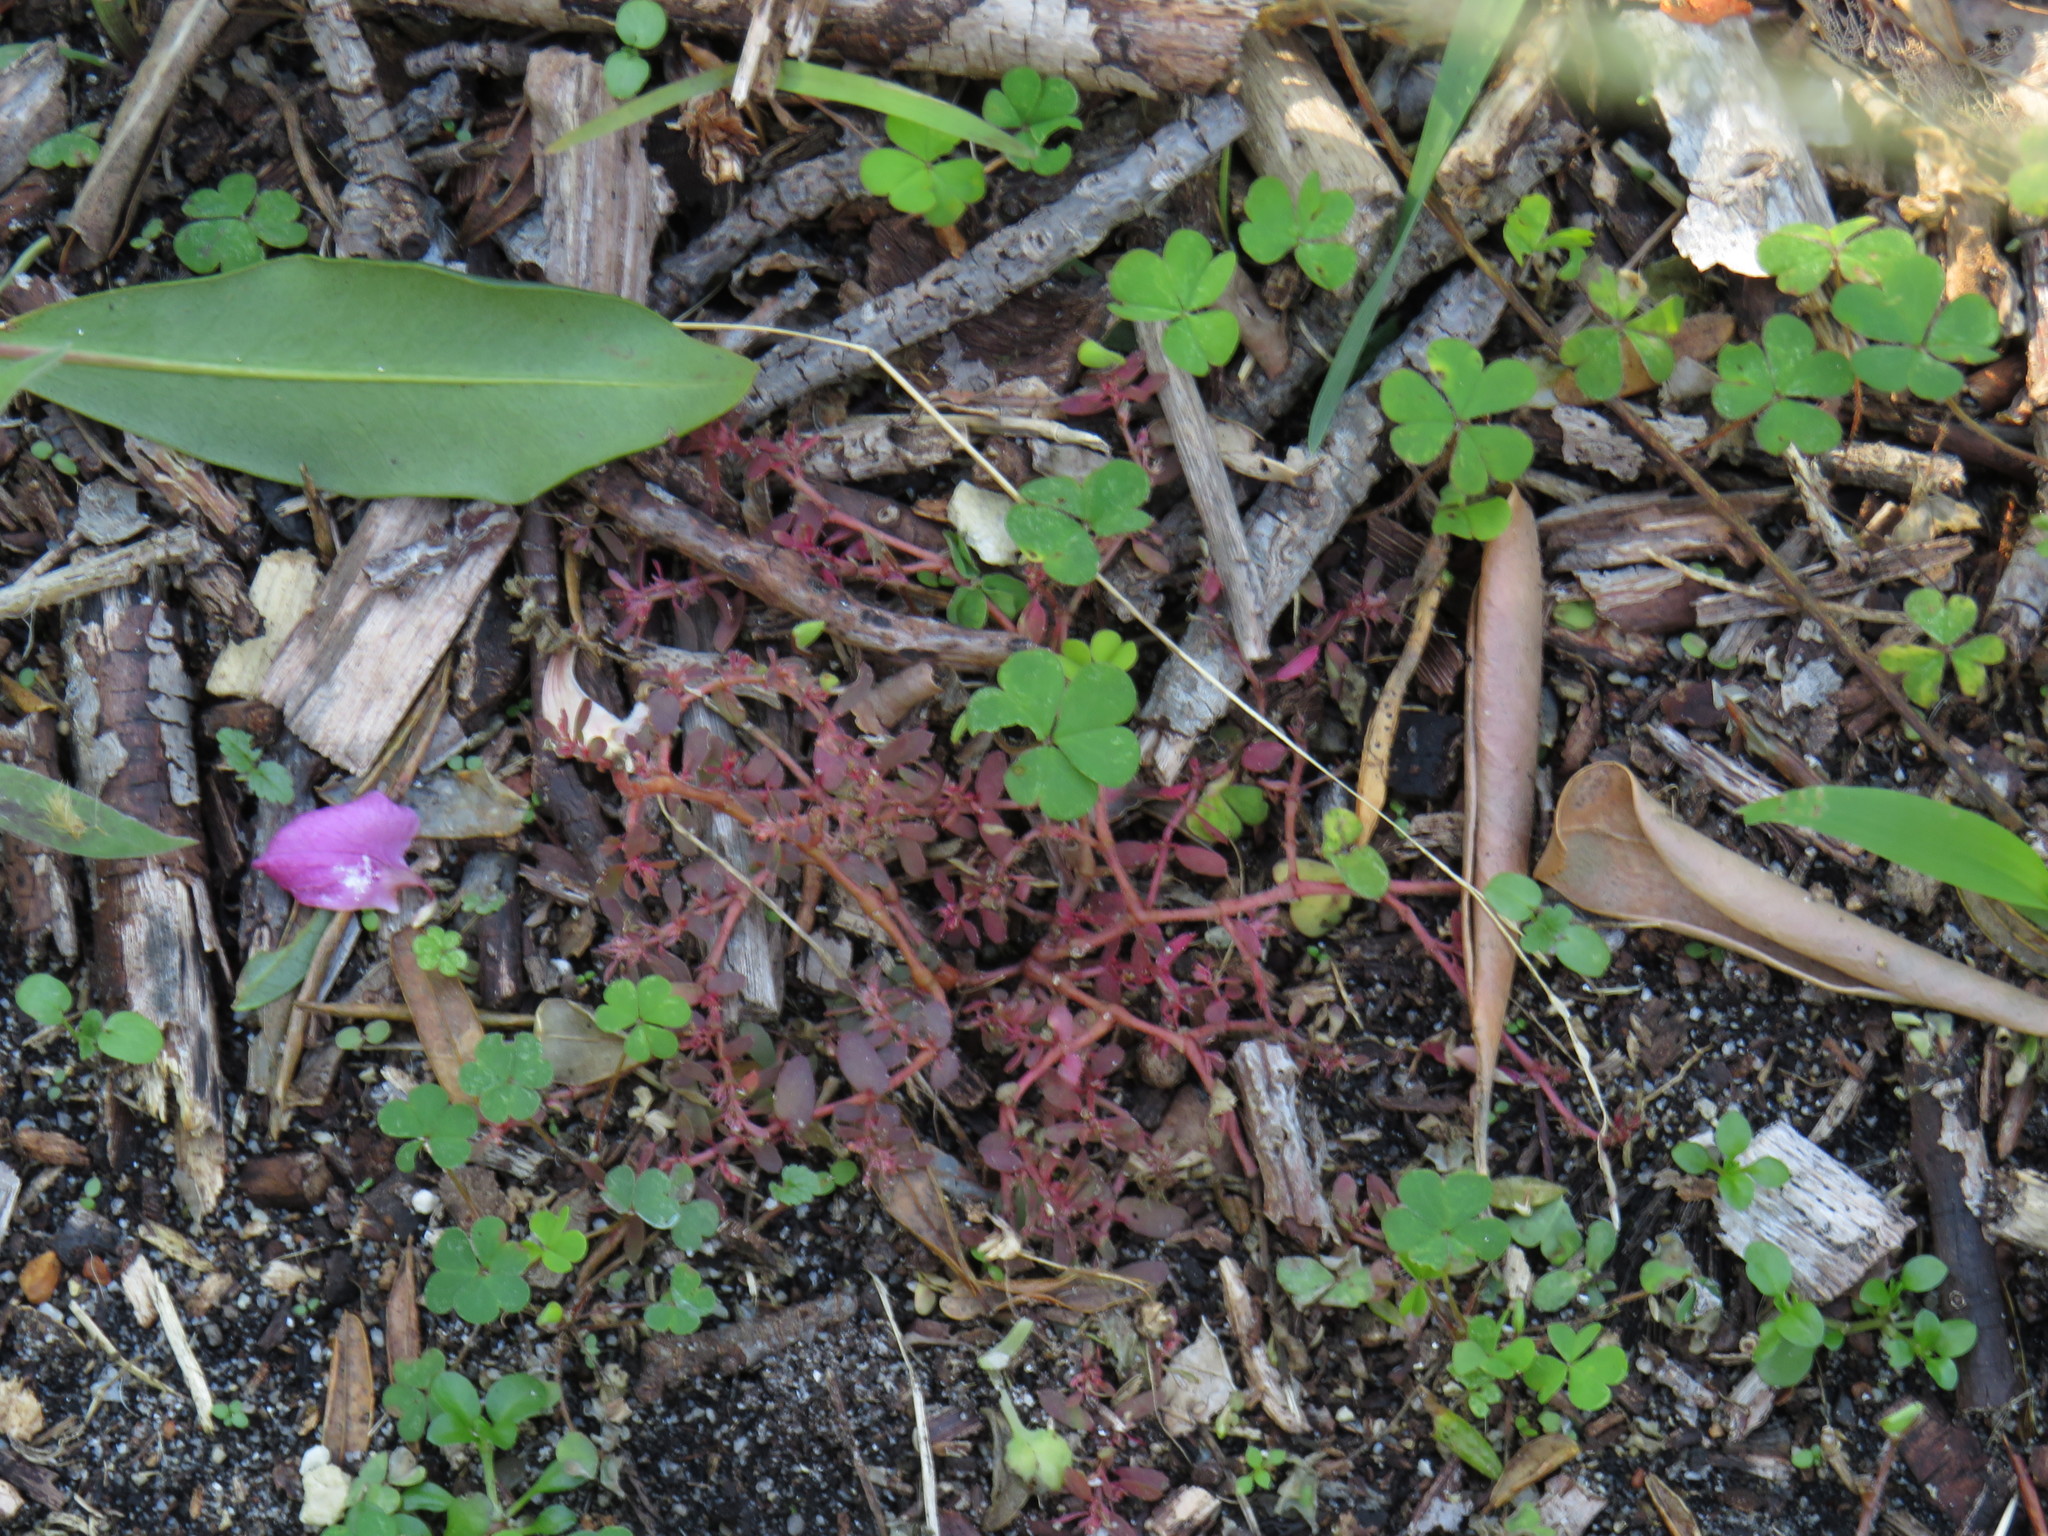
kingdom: Plantae
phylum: Tracheophyta
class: Magnoliopsida
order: Malpighiales
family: Euphorbiaceae
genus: Euphorbia
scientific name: Euphorbia maculata
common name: Spotted spurge
